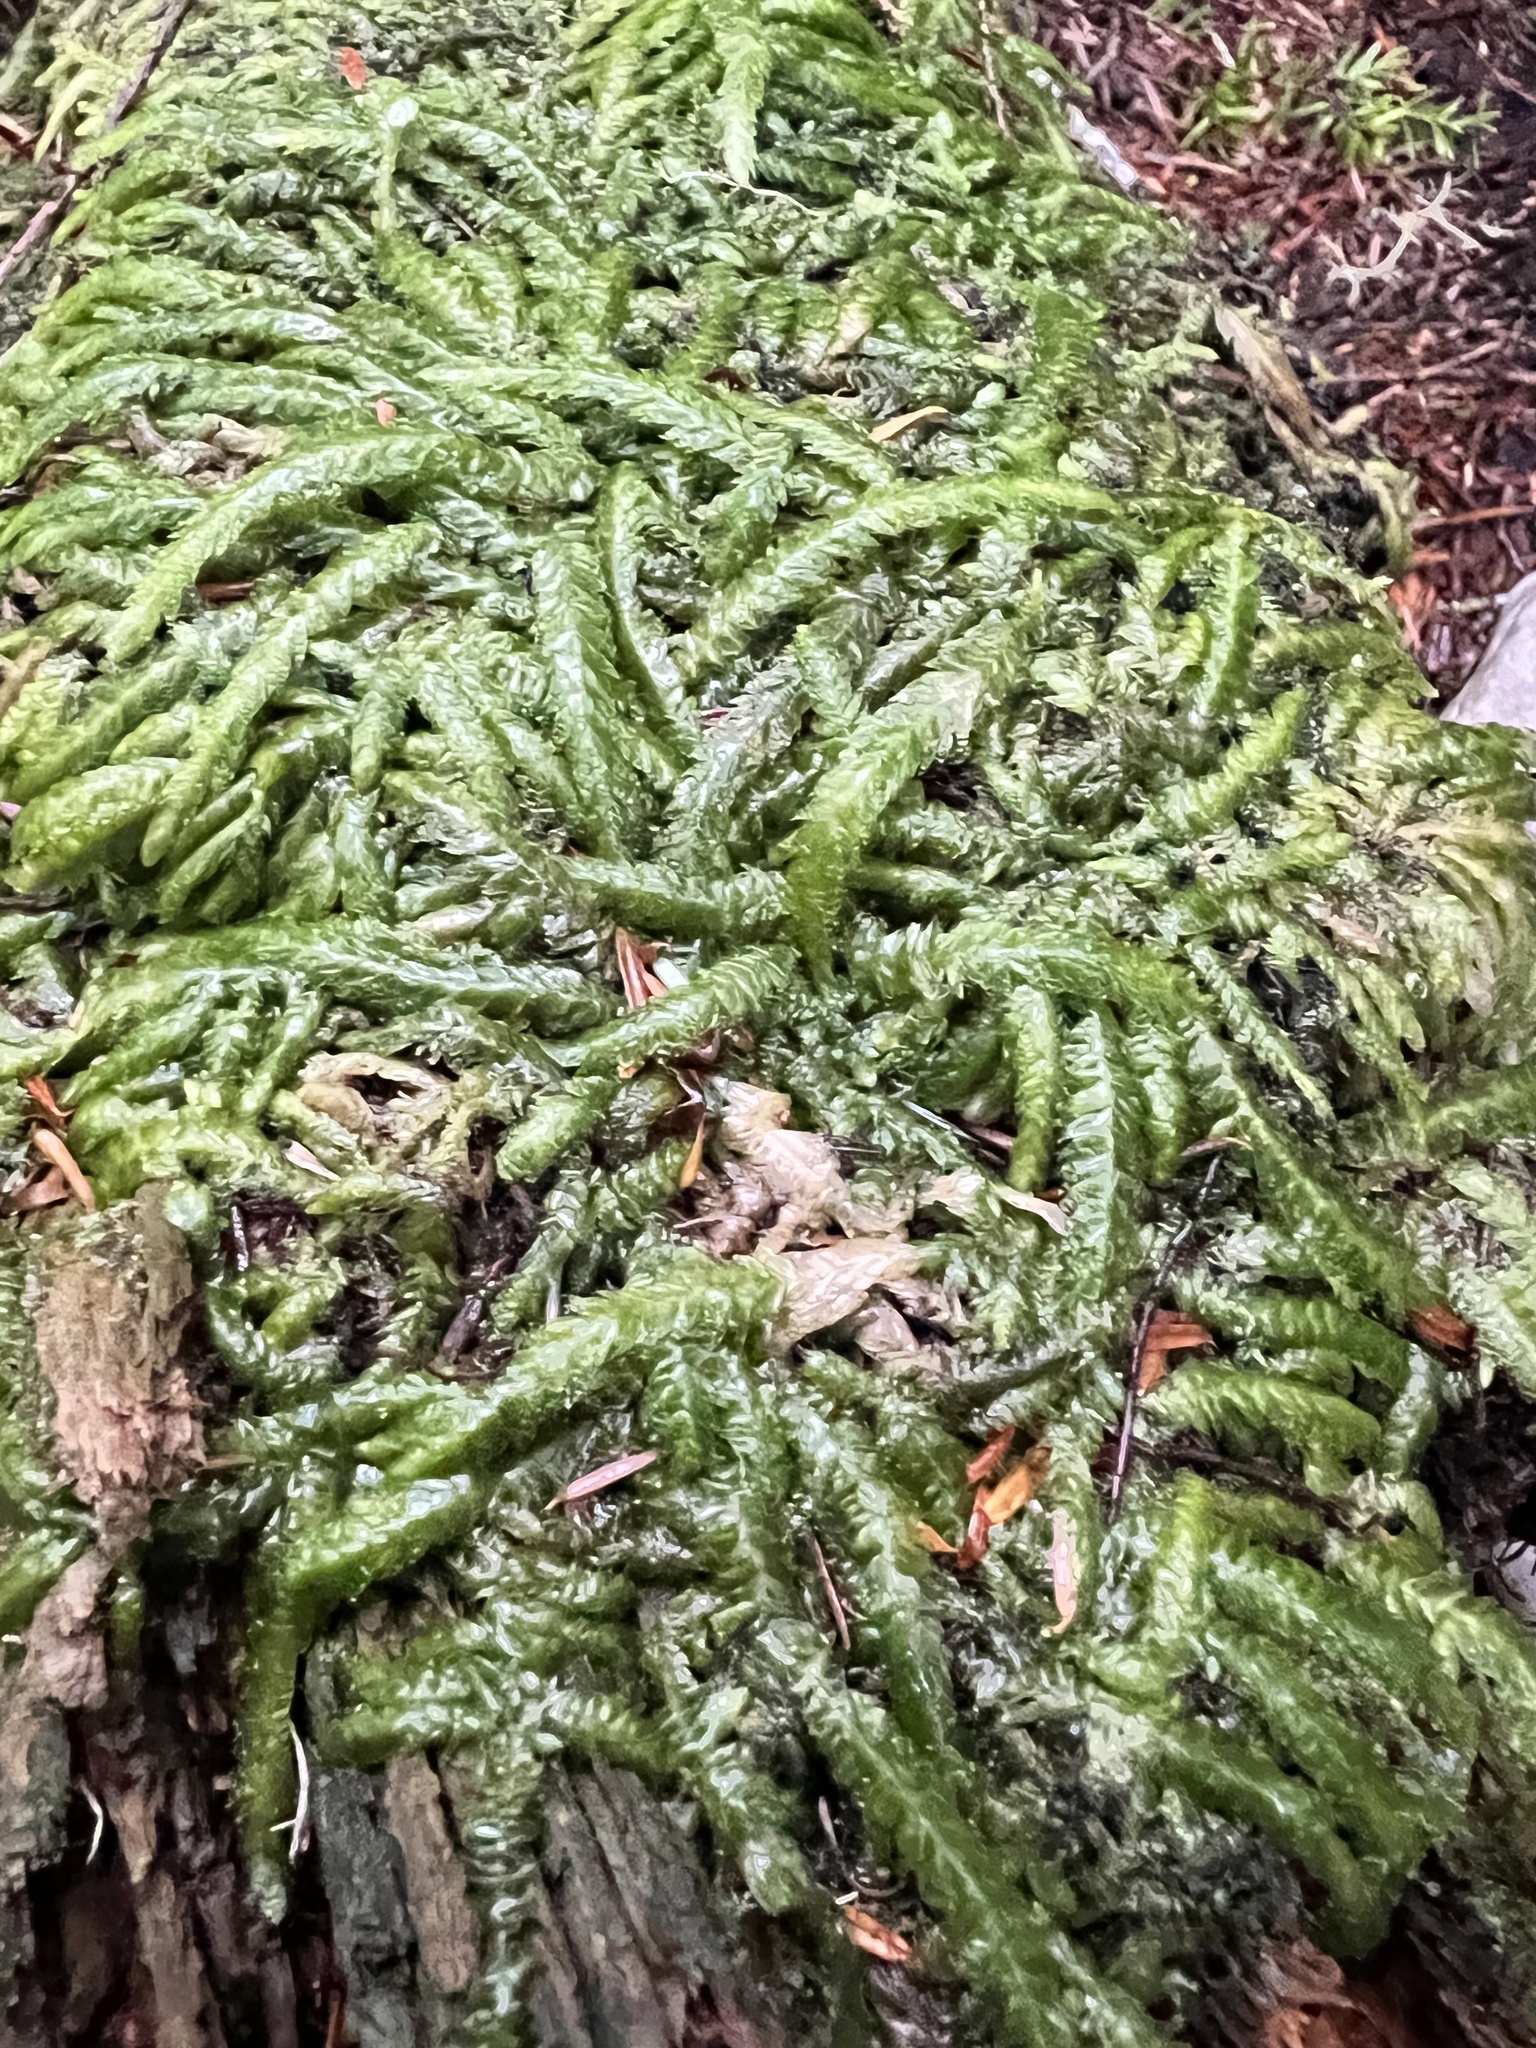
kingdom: Plantae
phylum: Bryophyta
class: Bryopsida
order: Hypnales
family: Plagiotheciaceae
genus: Plagiothecium
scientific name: Plagiothecium undulatum
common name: Waved silk-moss
